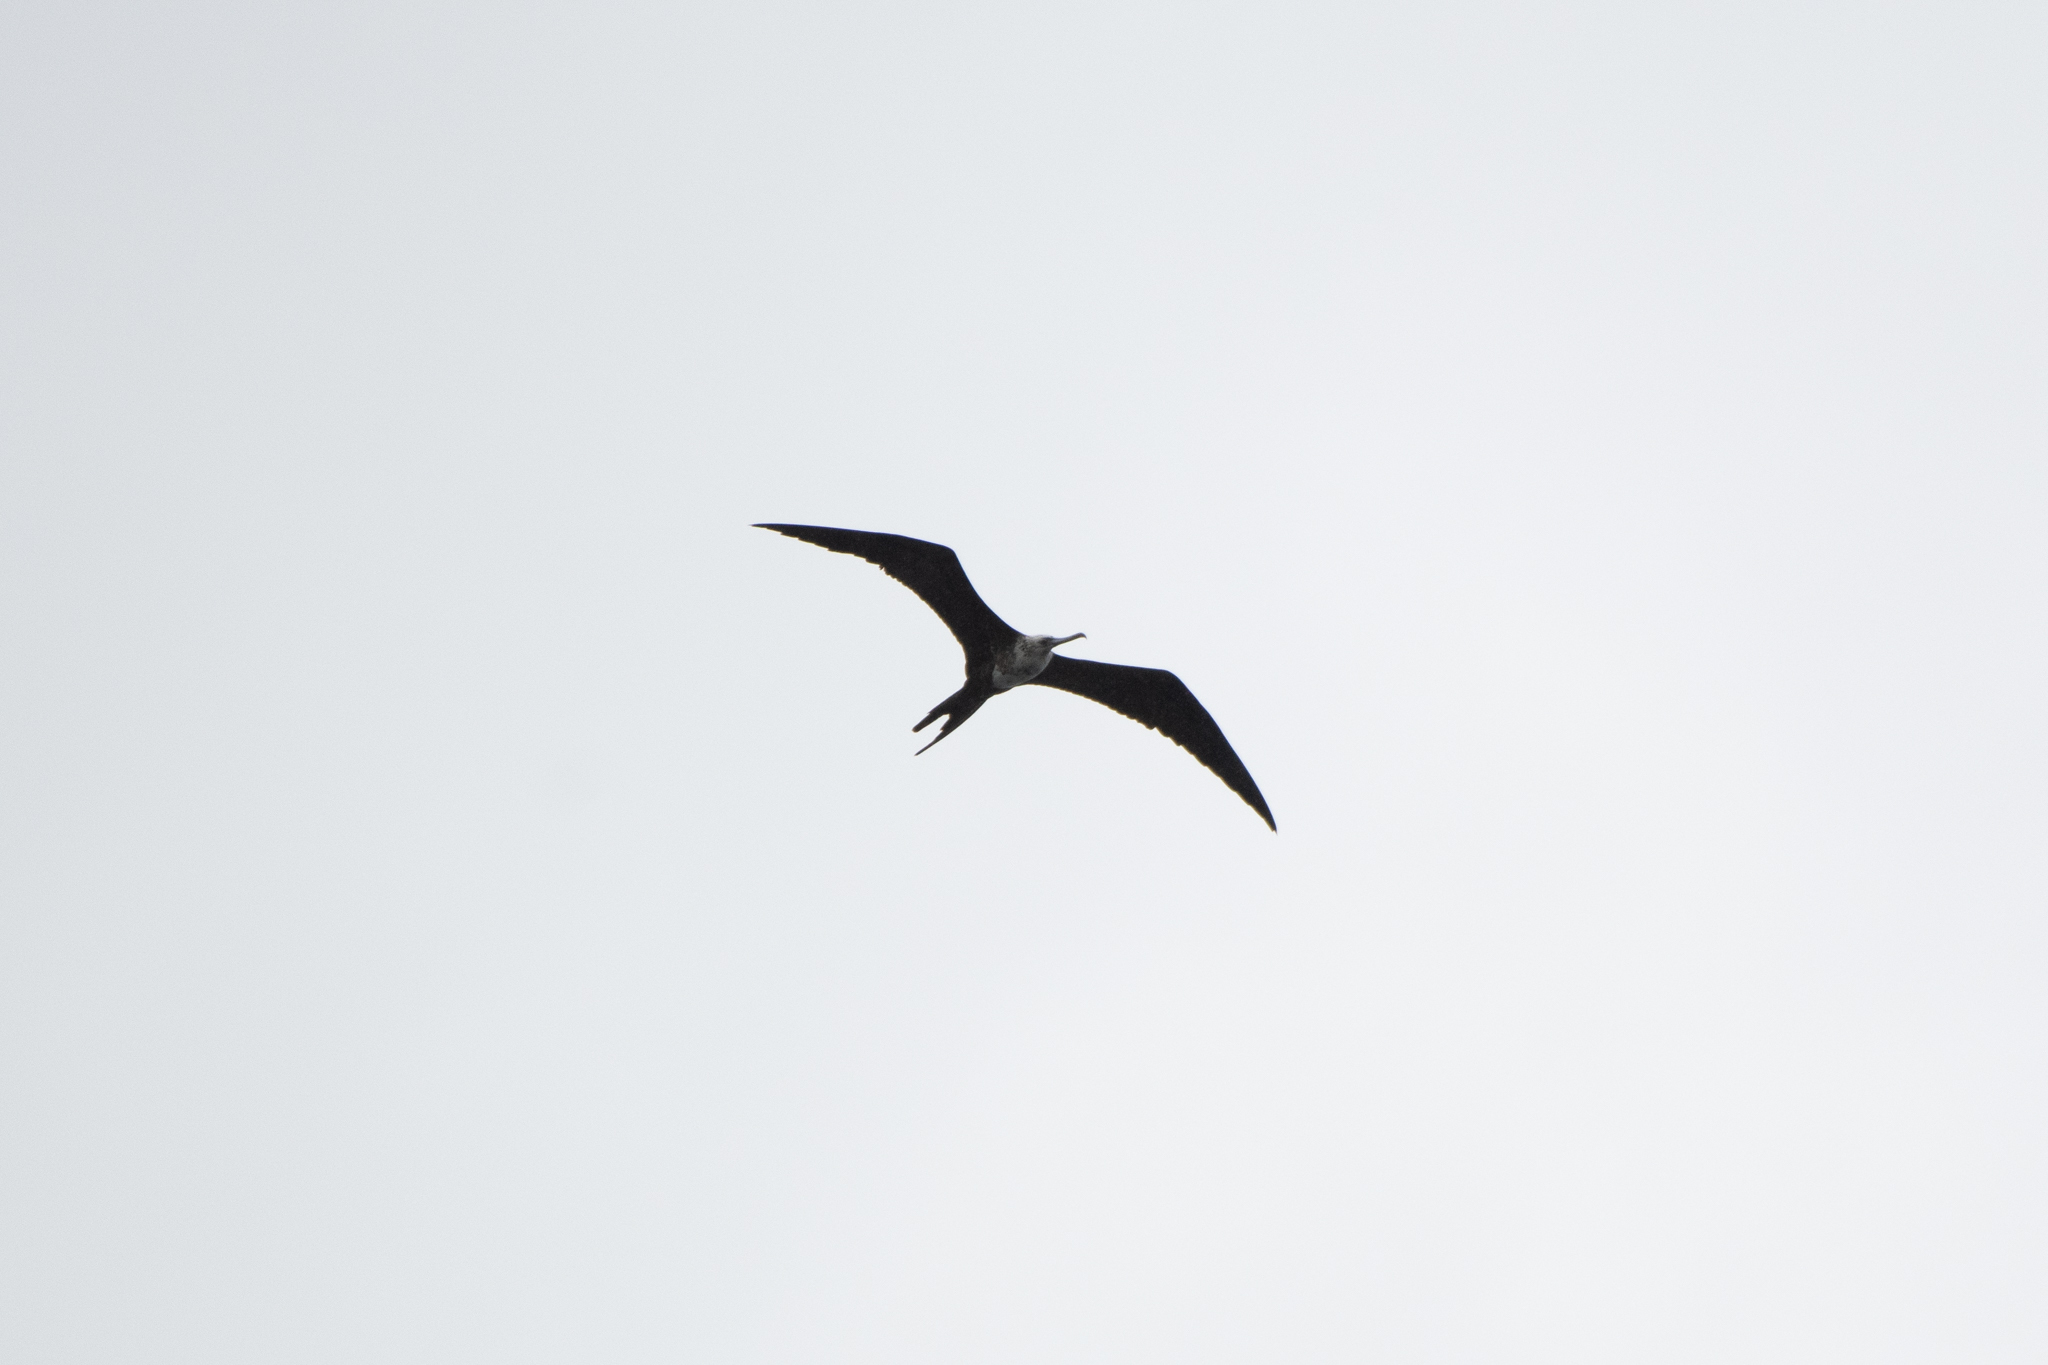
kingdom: Animalia
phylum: Chordata
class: Aves
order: Suliformes
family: Fregatidae
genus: Fregata
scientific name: Fregata magnificens
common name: Magnificent frigatebird
